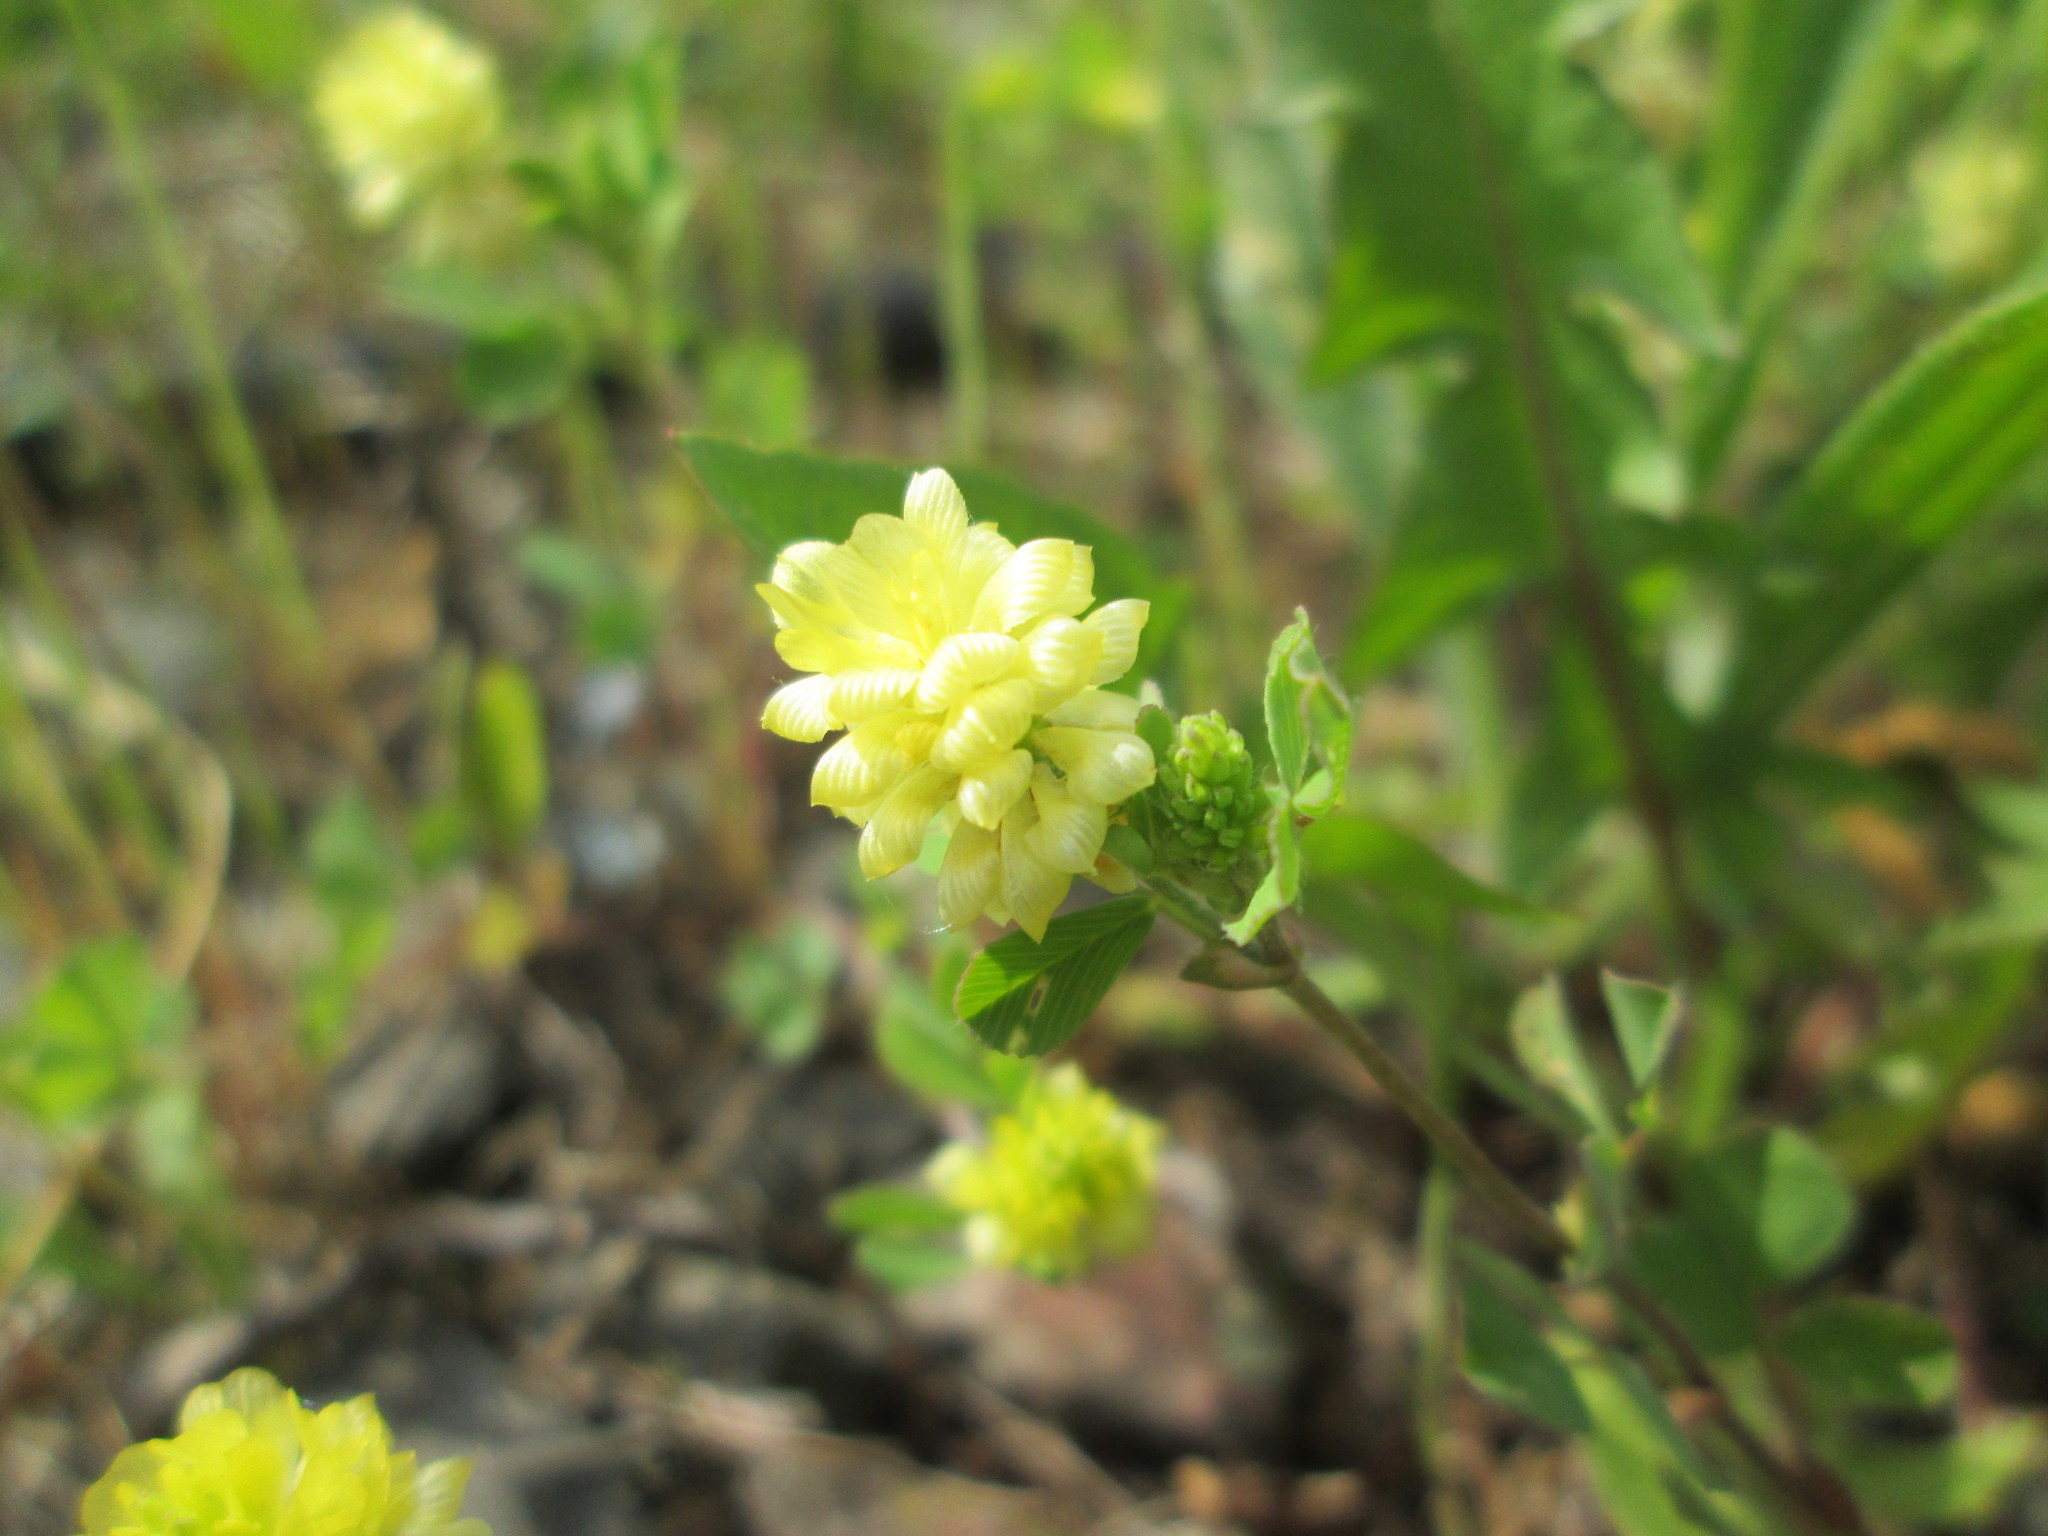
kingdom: Plantae
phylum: Tracheophyta
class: Magnoliopsida
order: Fabales
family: Fabaceae
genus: Trifolium
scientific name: Trifolium campestre
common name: Field clover
